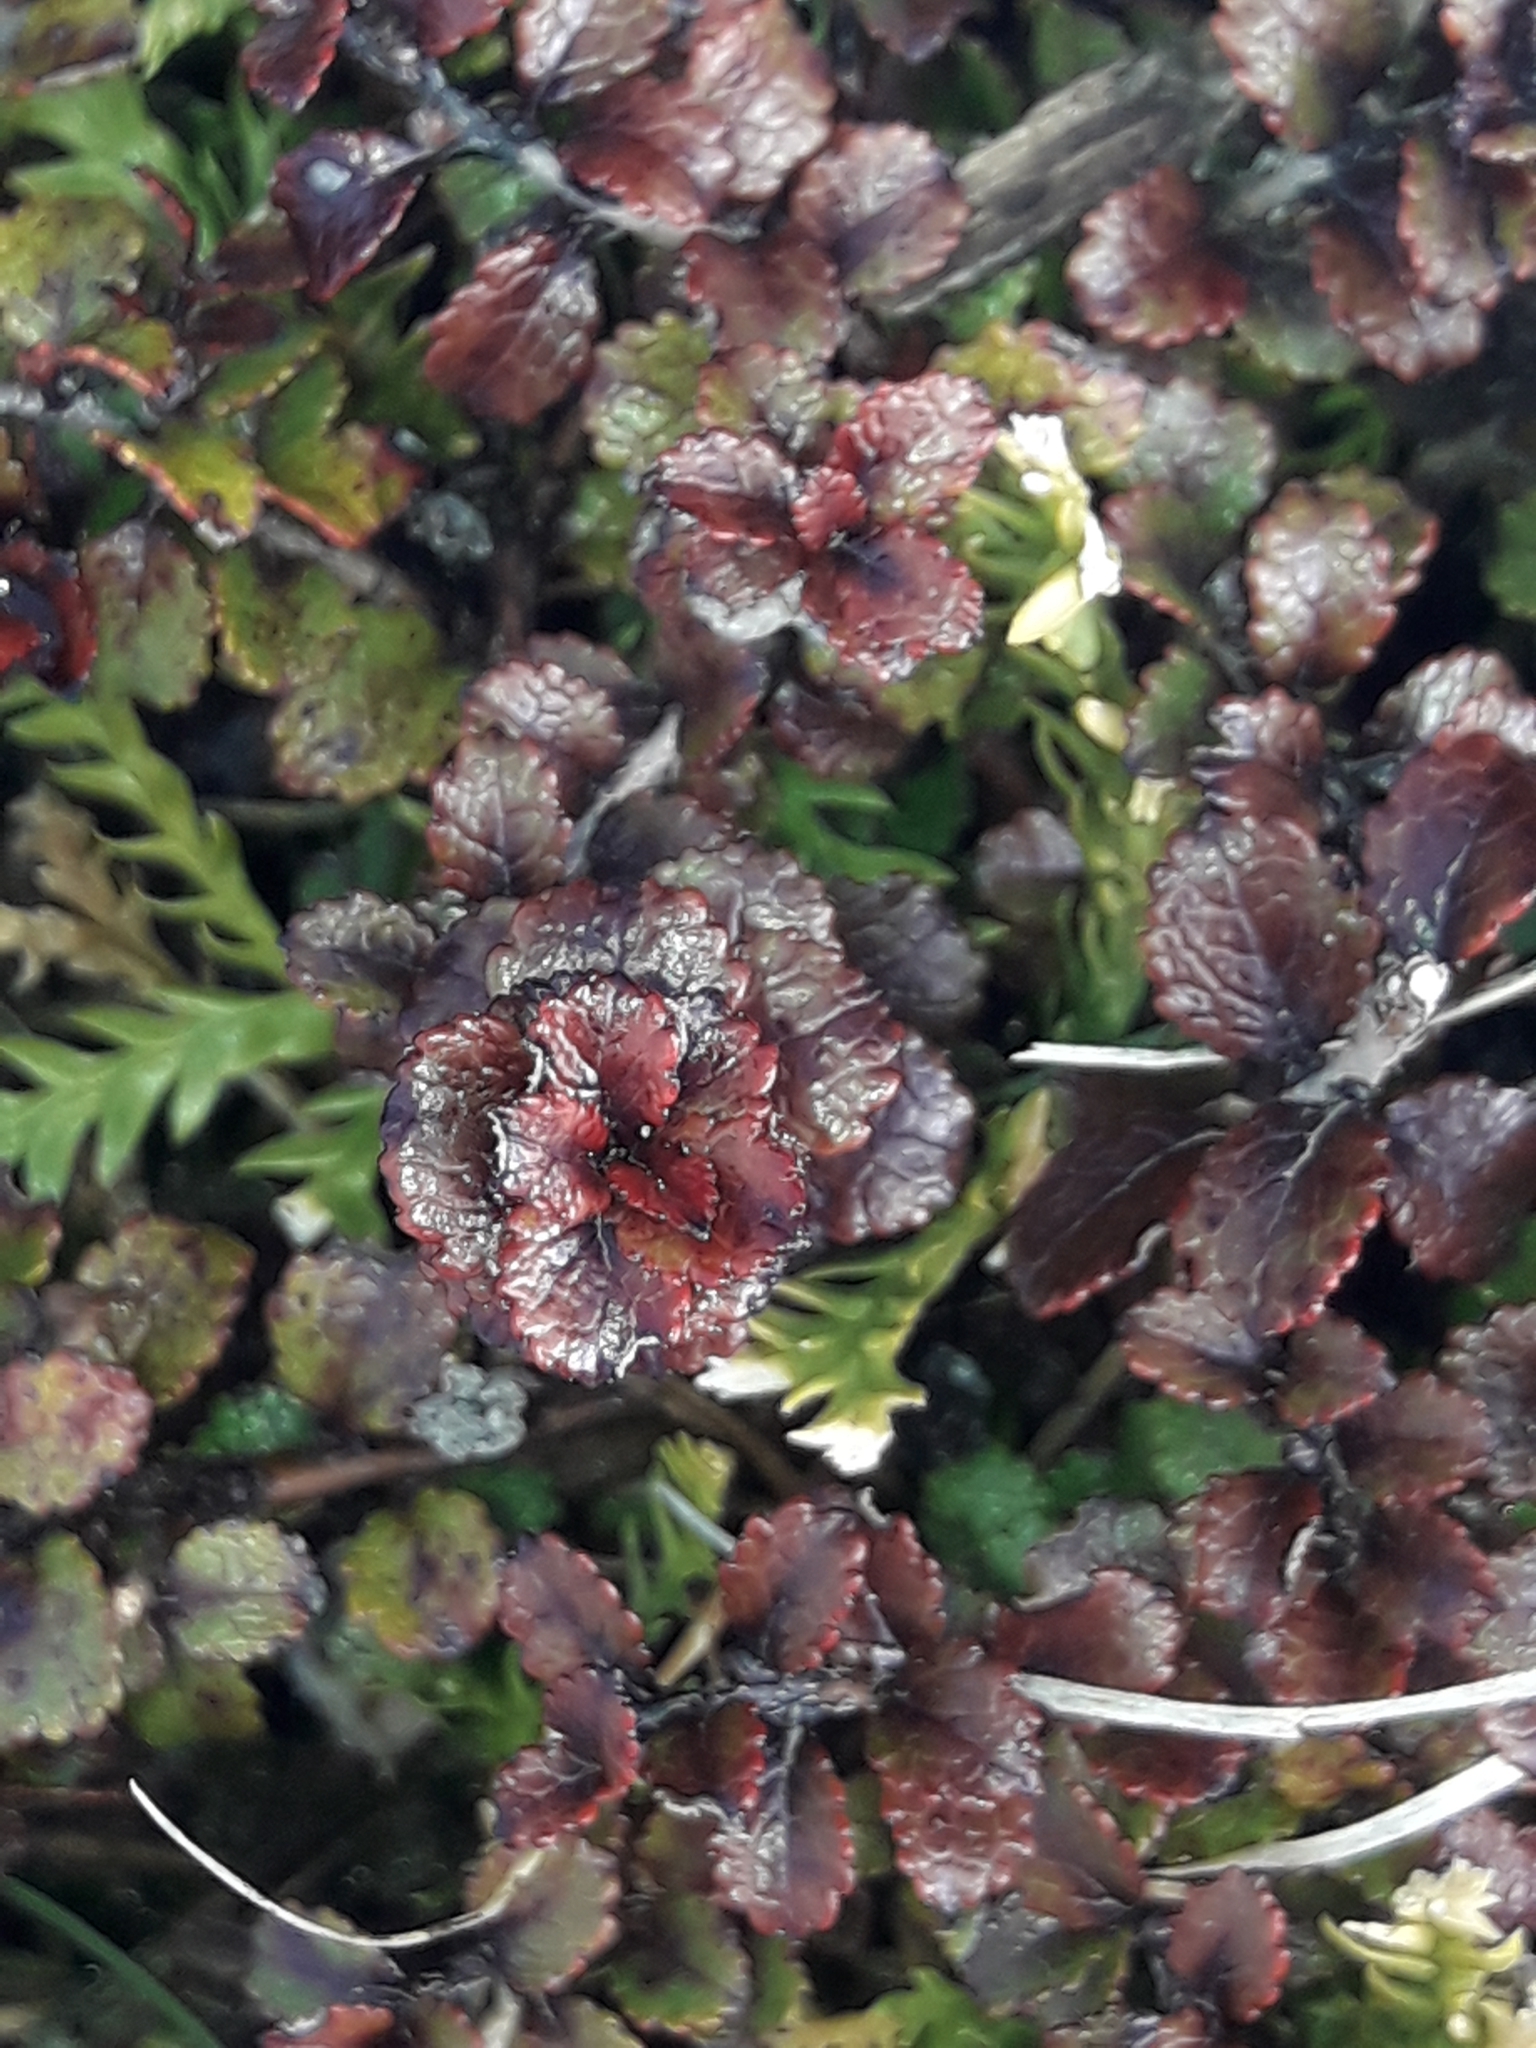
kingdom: Plantae
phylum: Tracheophyta
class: Magnoliopsida
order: Ericales
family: Ericaceae
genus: Gaultheria
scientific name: Gaultheria depressa
